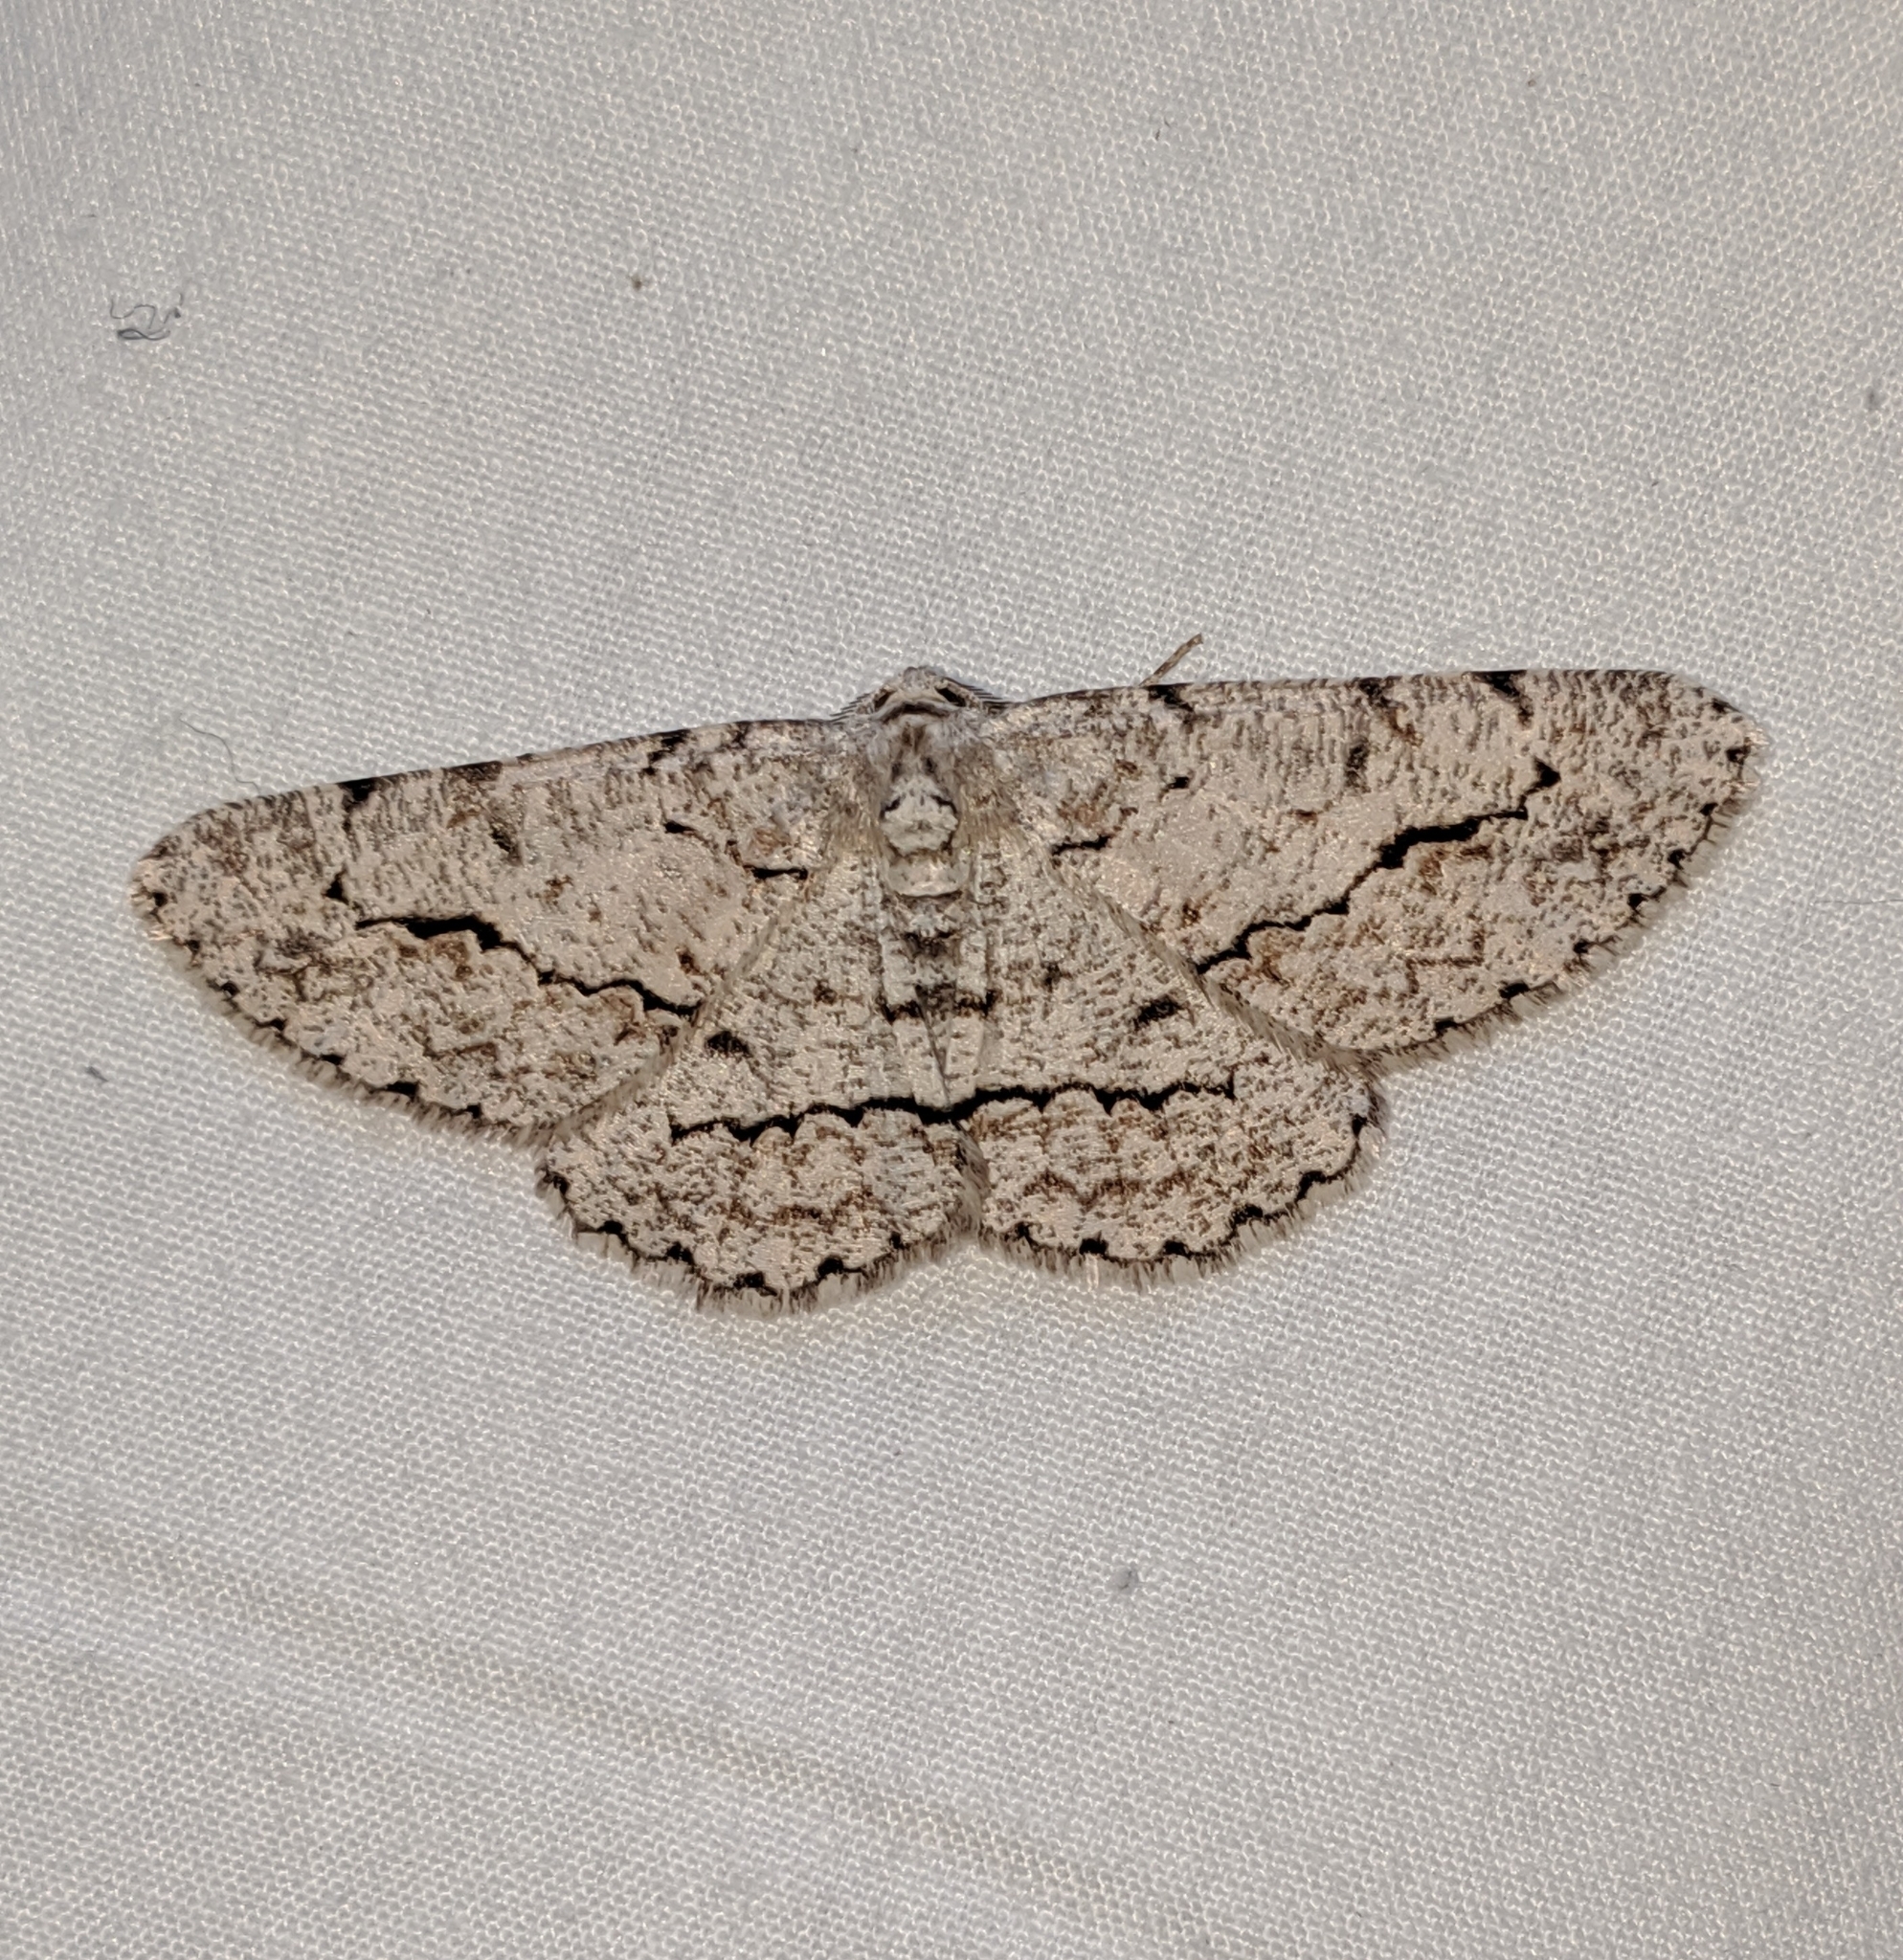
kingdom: Animalia
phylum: Arthropoda
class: Insecta
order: Lepidoptera
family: Geometridae
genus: Stenoporpia
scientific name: Stenoporpia pulmonaria
